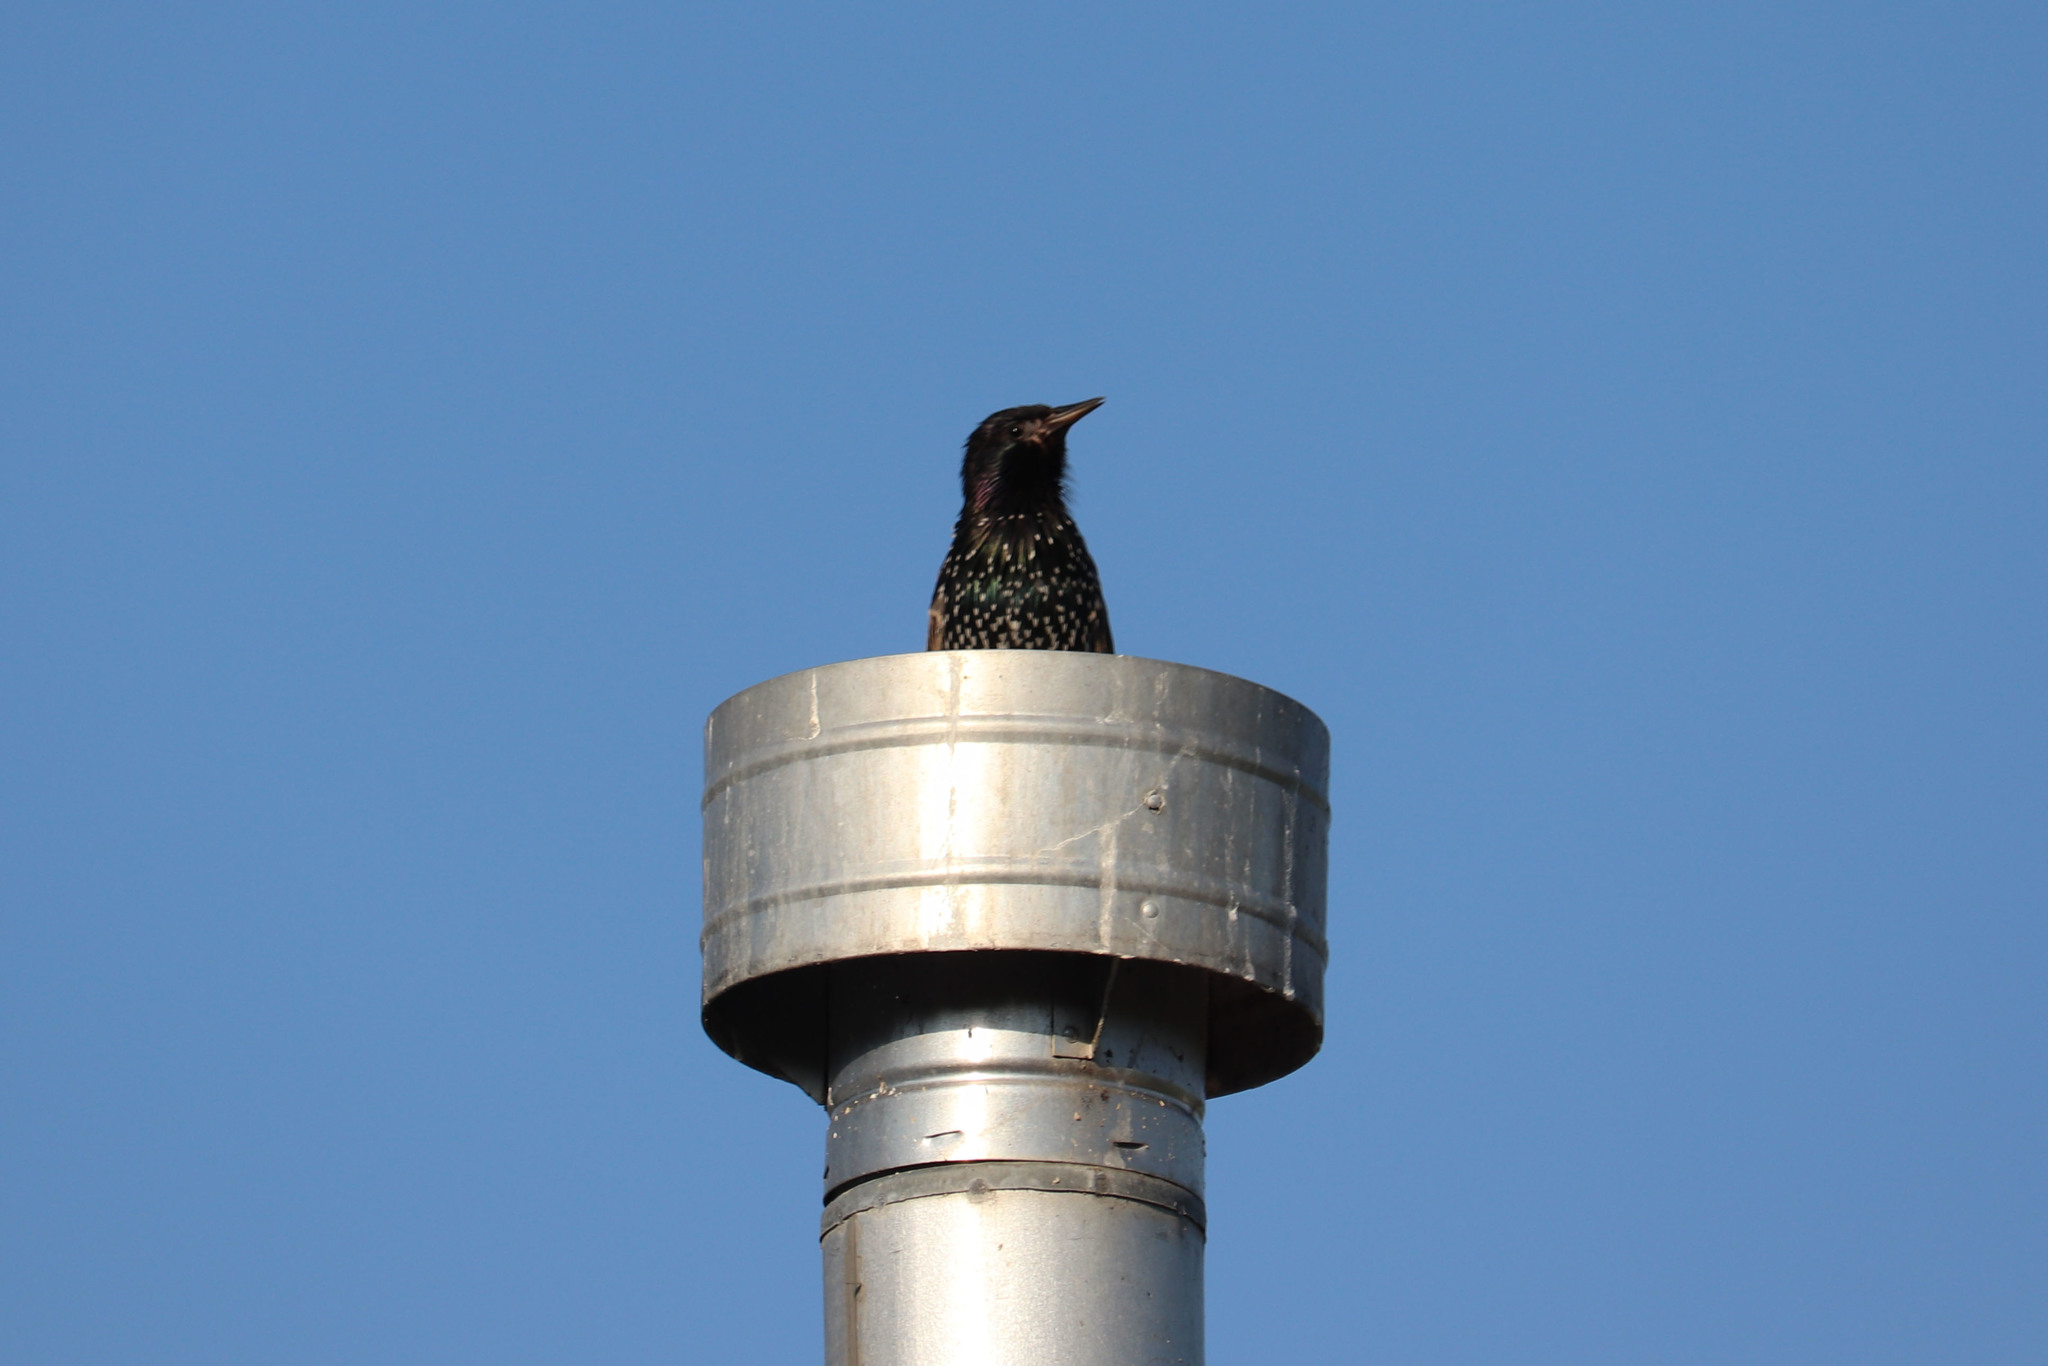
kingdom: Animalia
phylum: Chordata
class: Aves
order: Passeriformes
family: Sturnidae
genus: Sturnus
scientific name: Sturnus vulgaris
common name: Common starling
